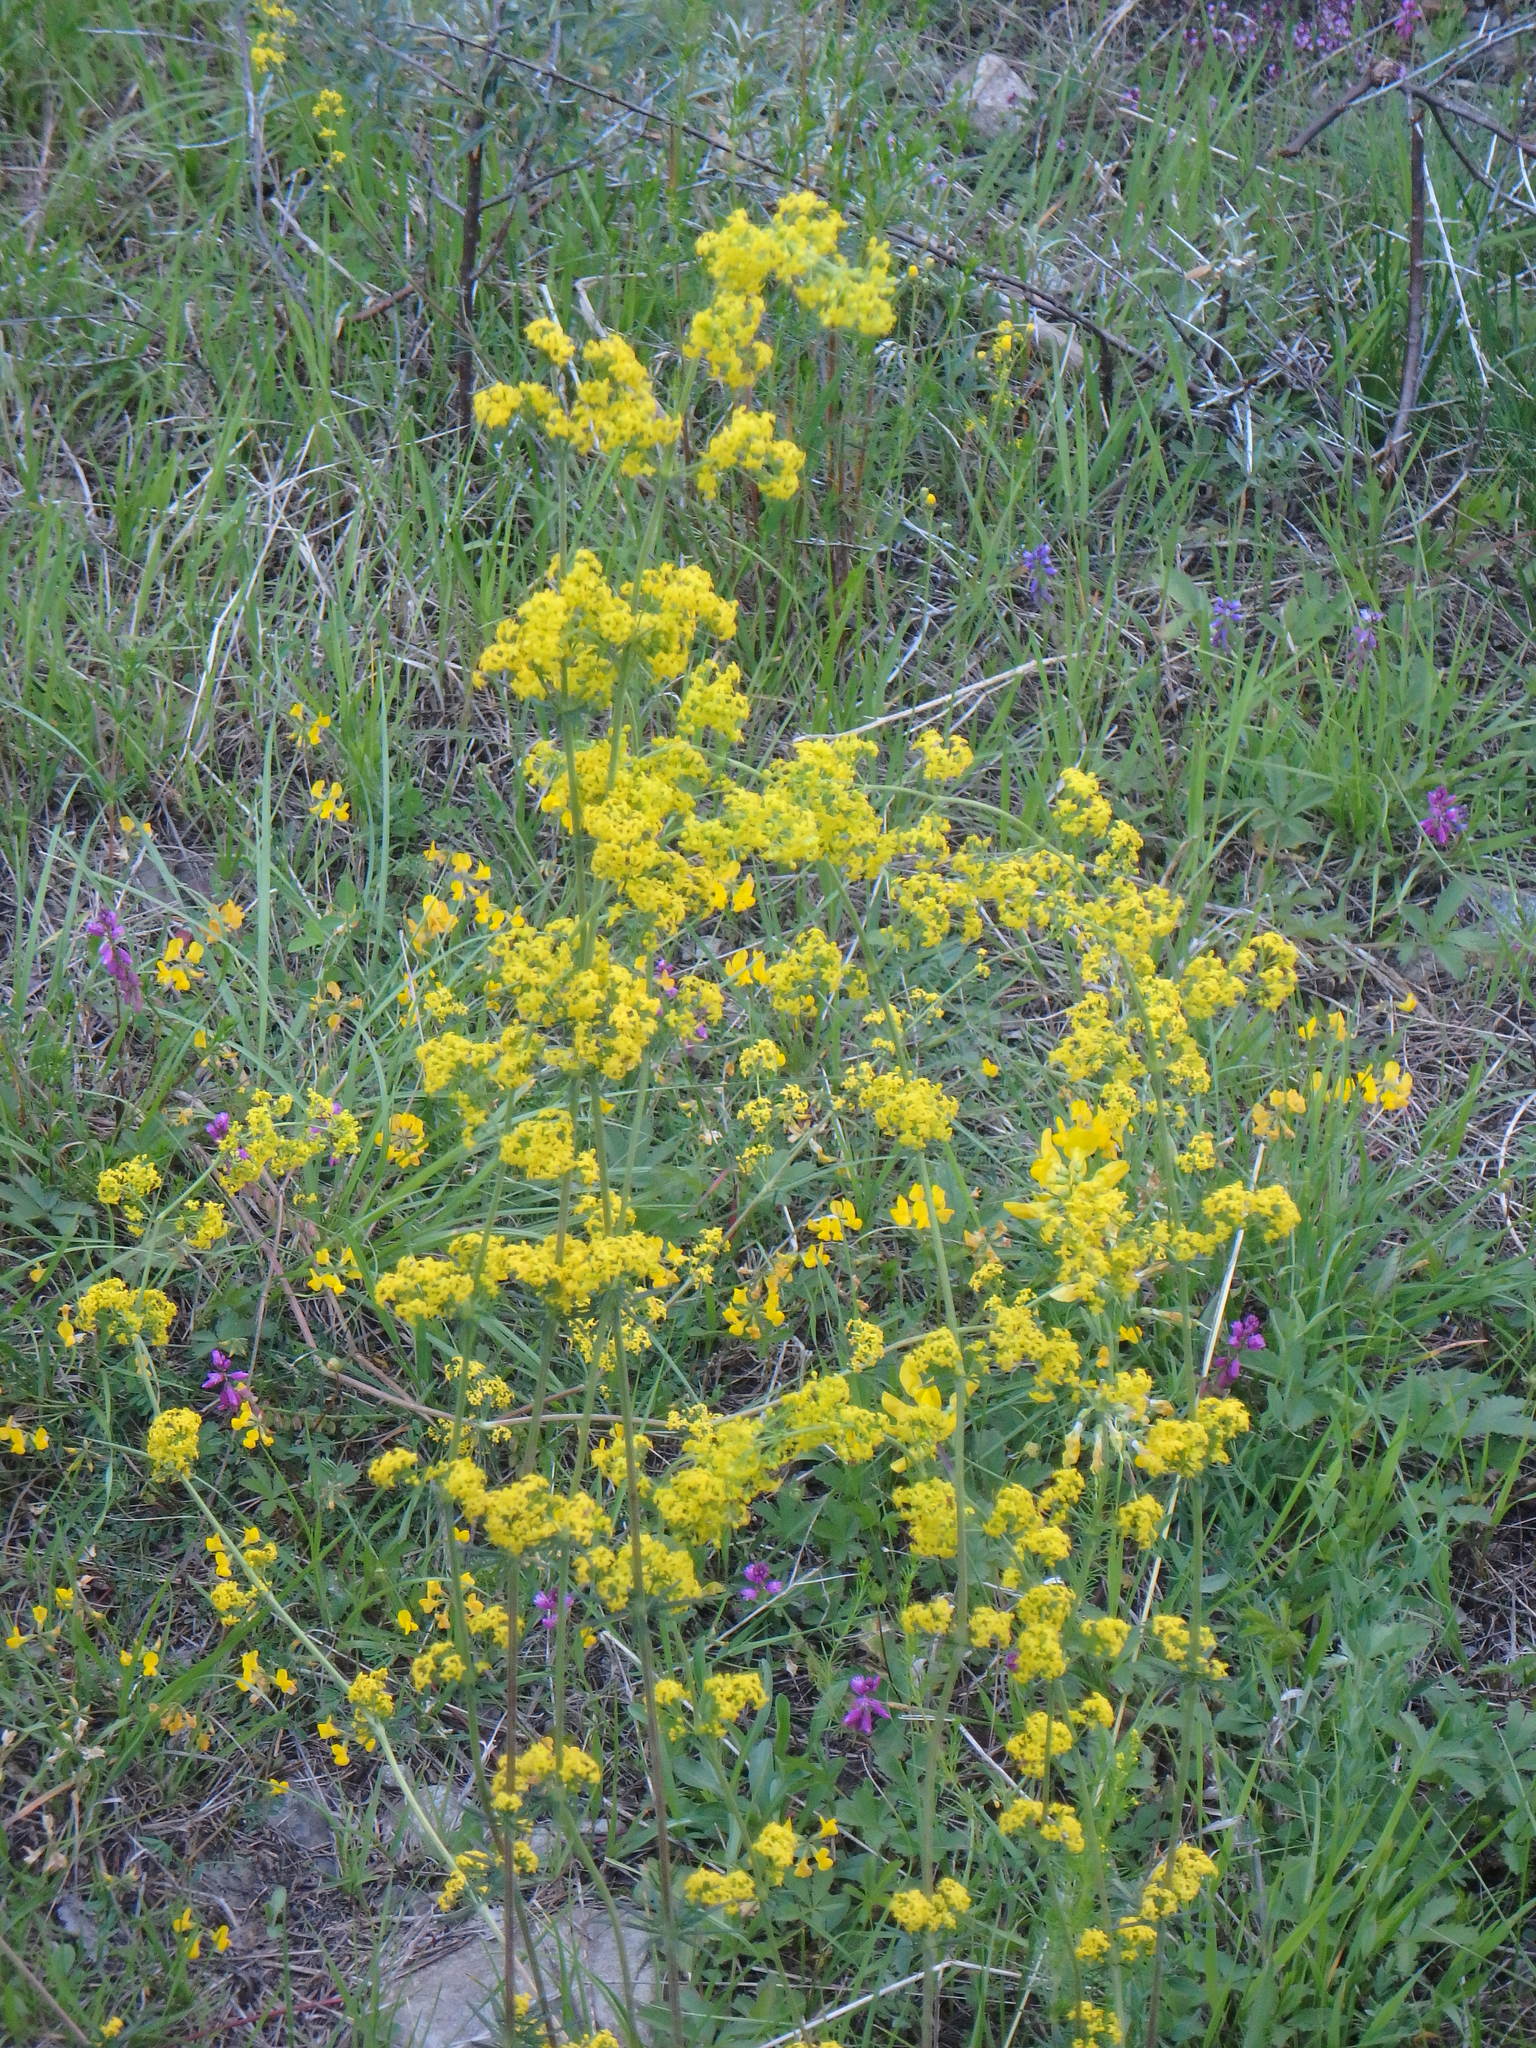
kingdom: Plantae
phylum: Tracheophyta
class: Magnoliopsida
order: Gentianales
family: Rubiaceae
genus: Galium
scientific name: Galium verum
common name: Lady's bedstraw
